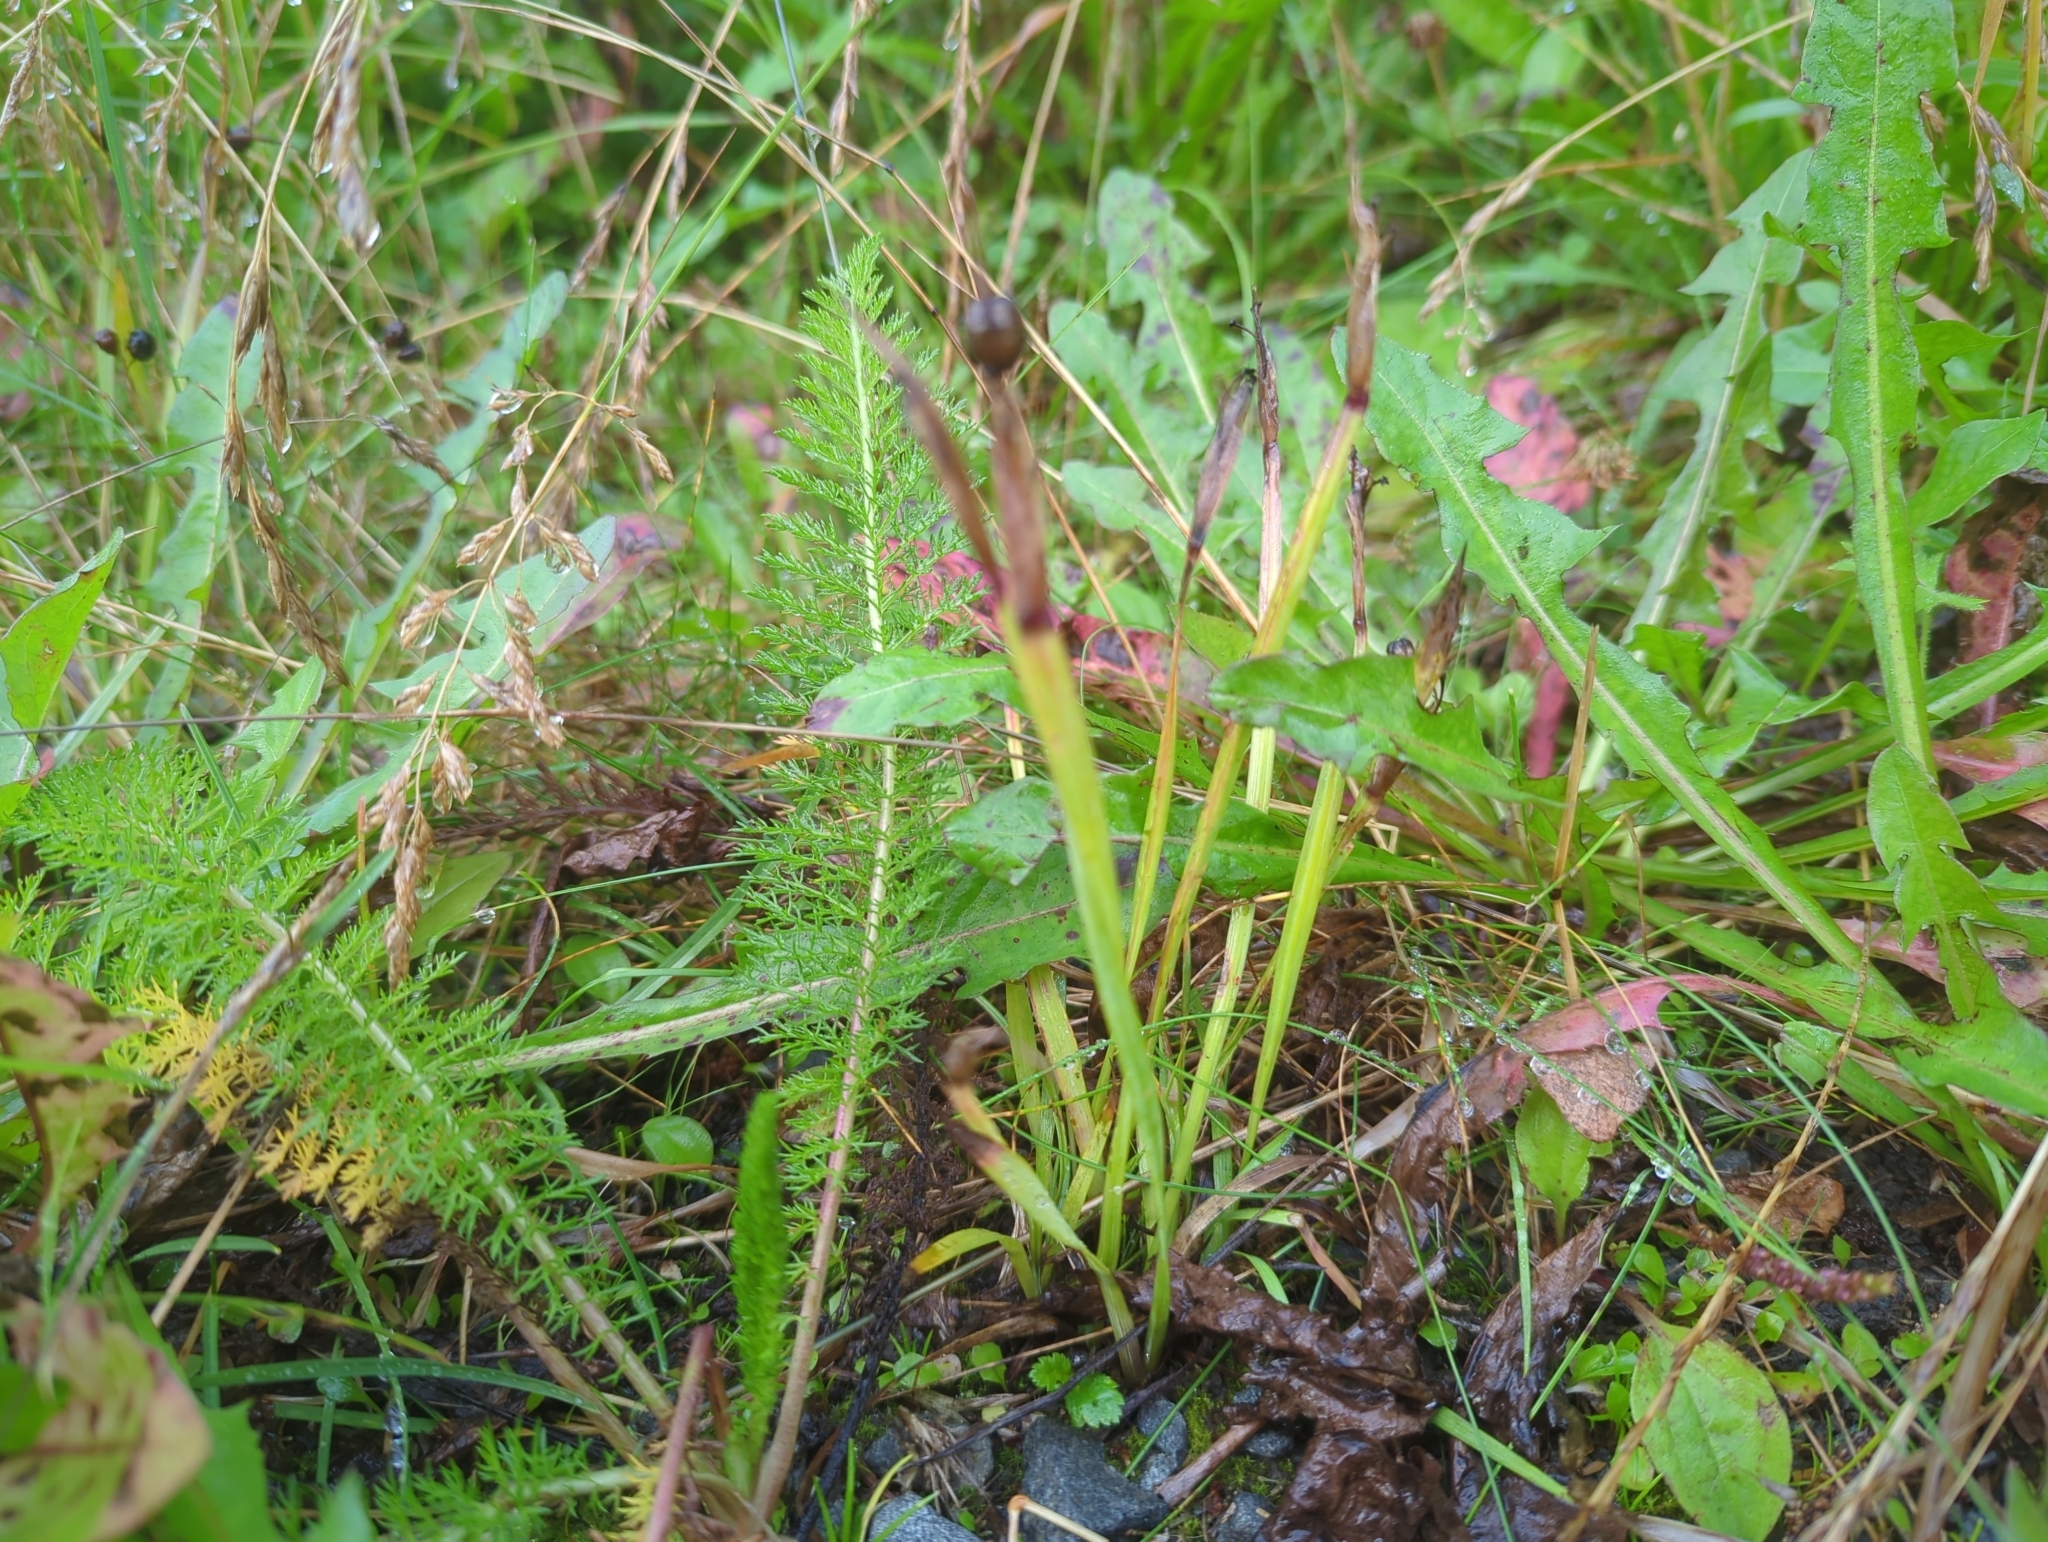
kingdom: Plantae
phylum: Tracheophyta
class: Liliopsida
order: Asparagales
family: Iridaceae
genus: Sisyrinchium
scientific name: Sisyrinchium littorale
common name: Alaska blue-eyed-grass
